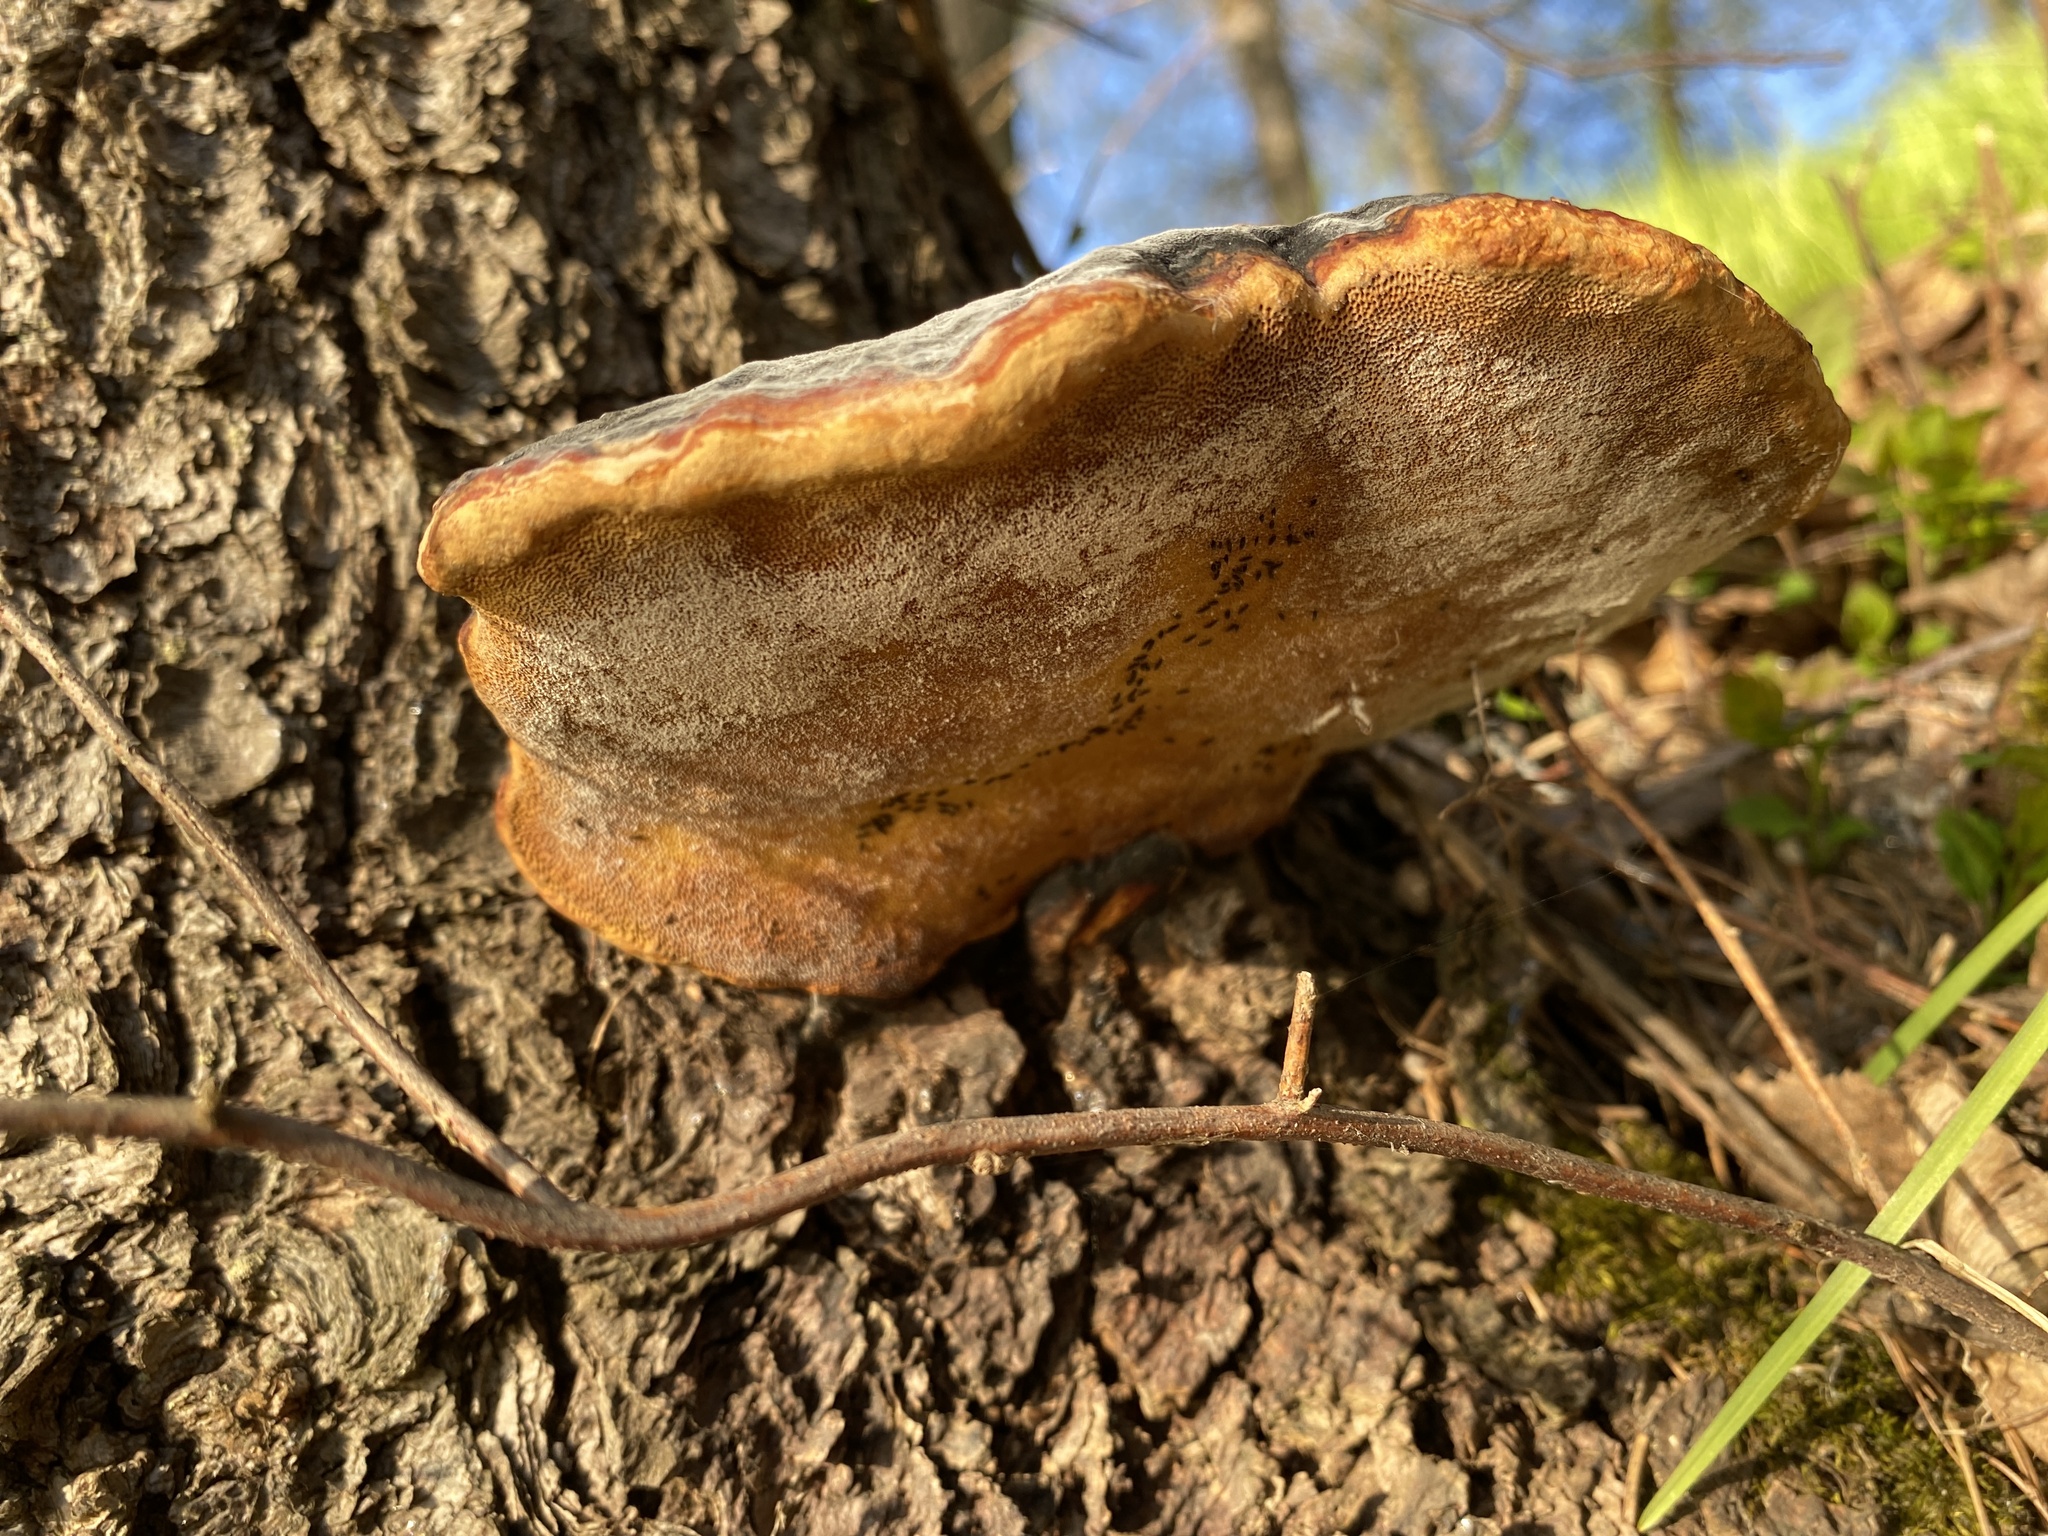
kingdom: Fungi
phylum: Basidiomycota
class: Agaricomycetes
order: Polyporales
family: Fomitopsidaceae
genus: Fomitopsis
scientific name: Fomitopsis pinicola
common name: Red-belted bracket
